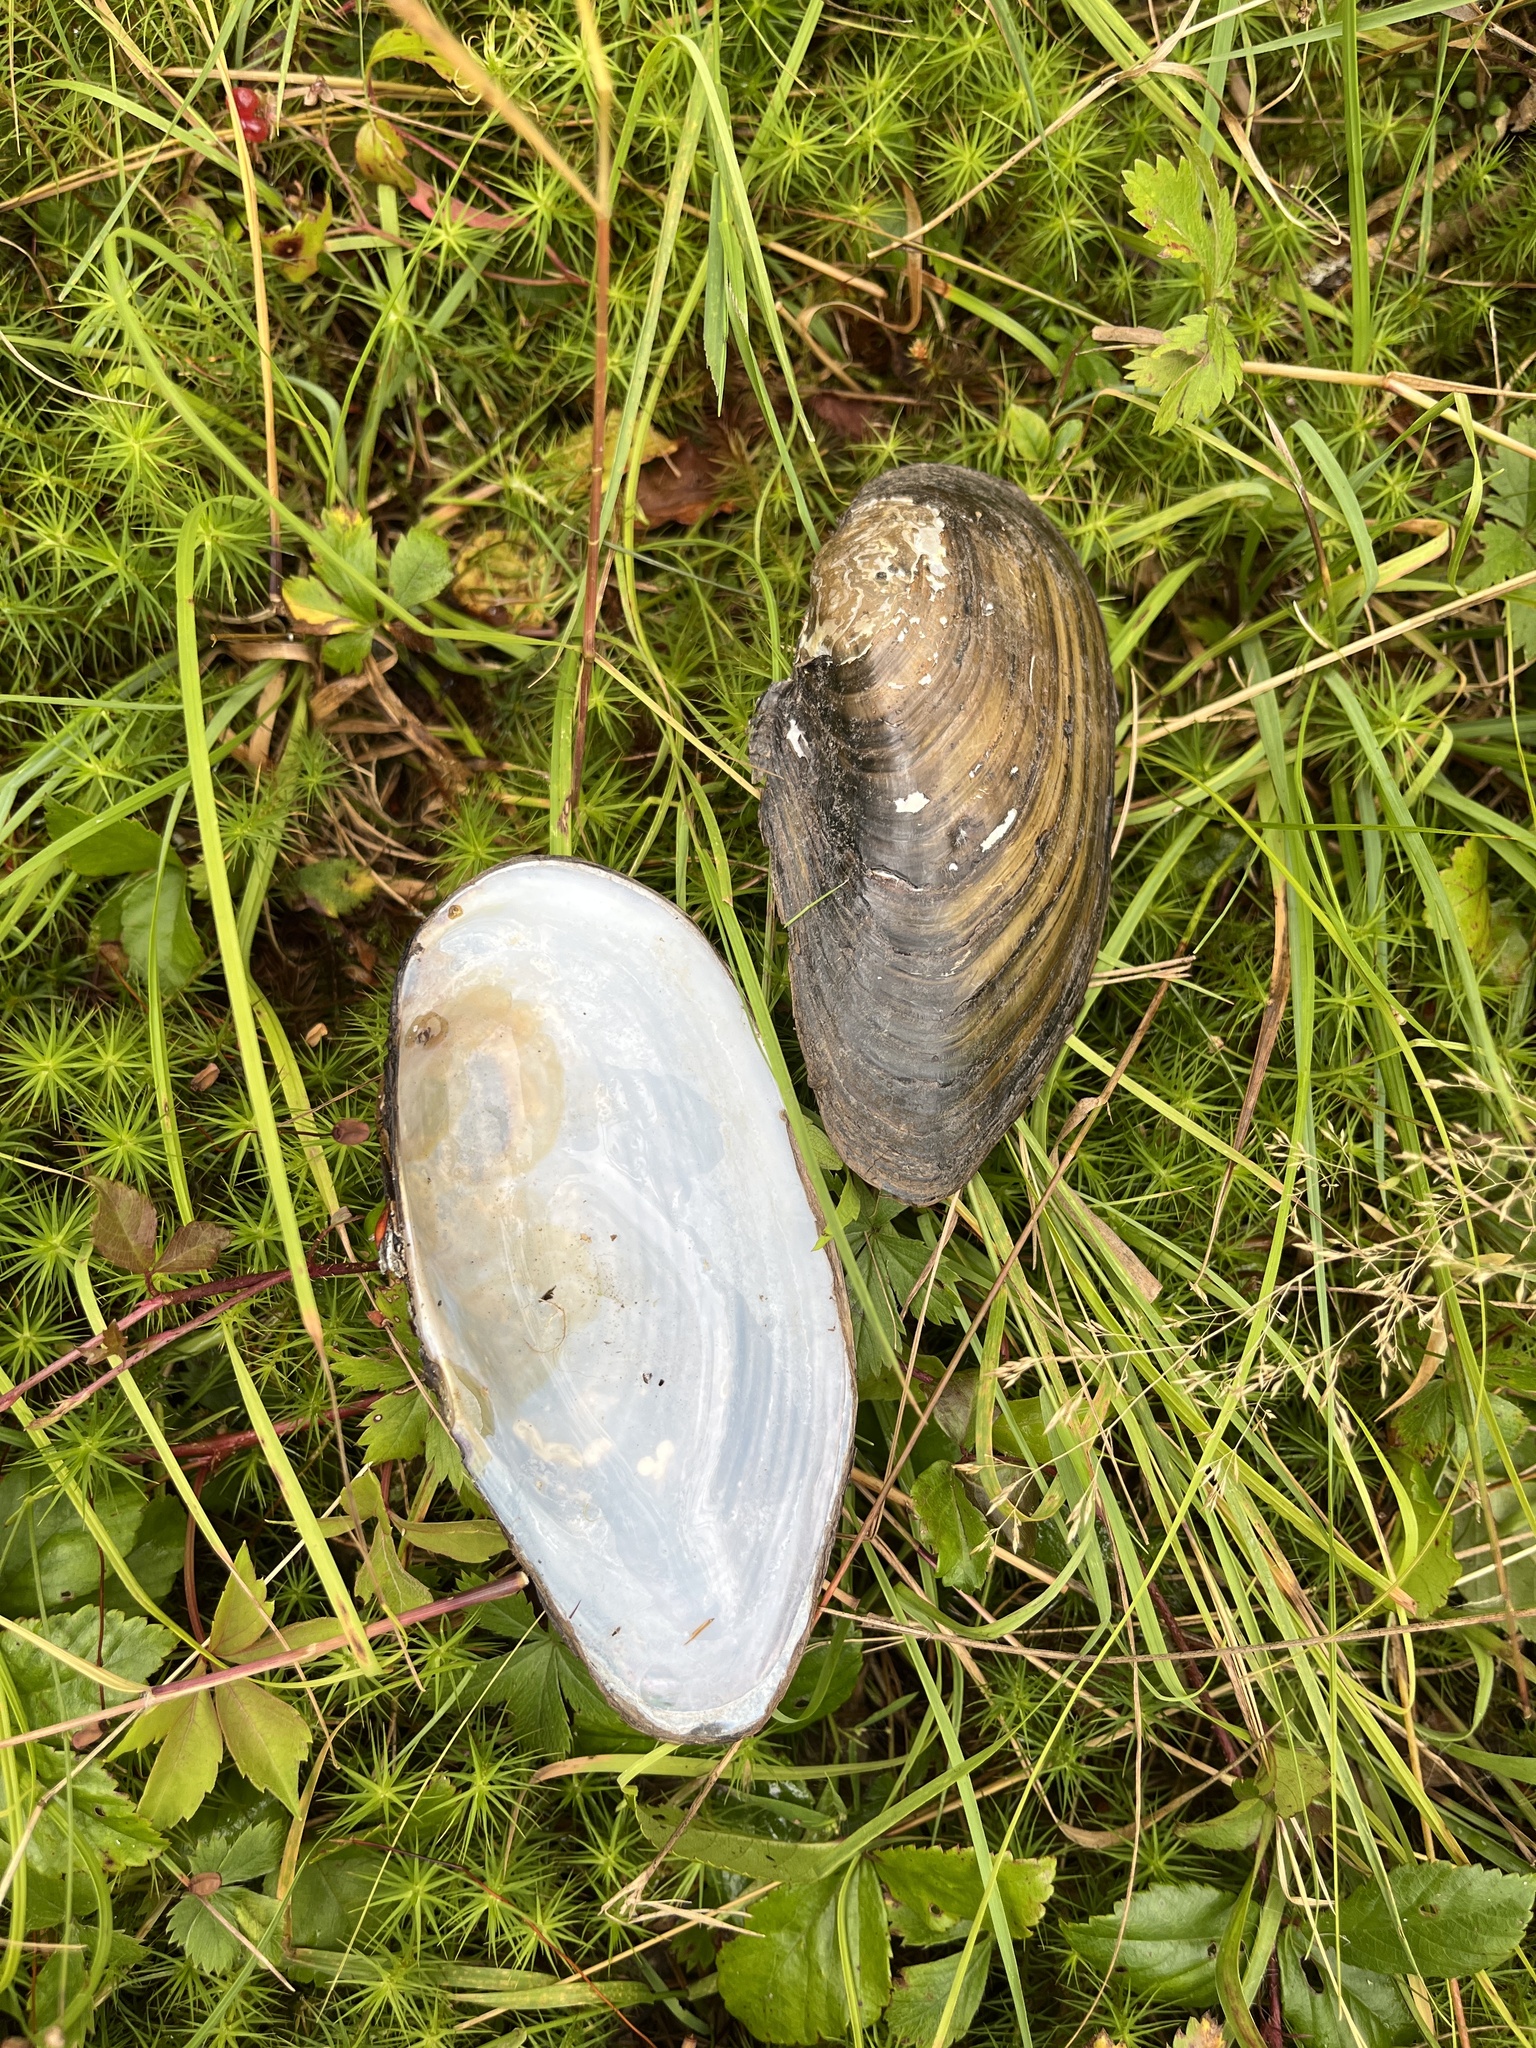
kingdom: Animalia
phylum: Mollusca
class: Bivalvia
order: Unionida
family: Unionidae
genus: Pyganodon
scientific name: Pyganodon cataracta
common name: Eastern floater
